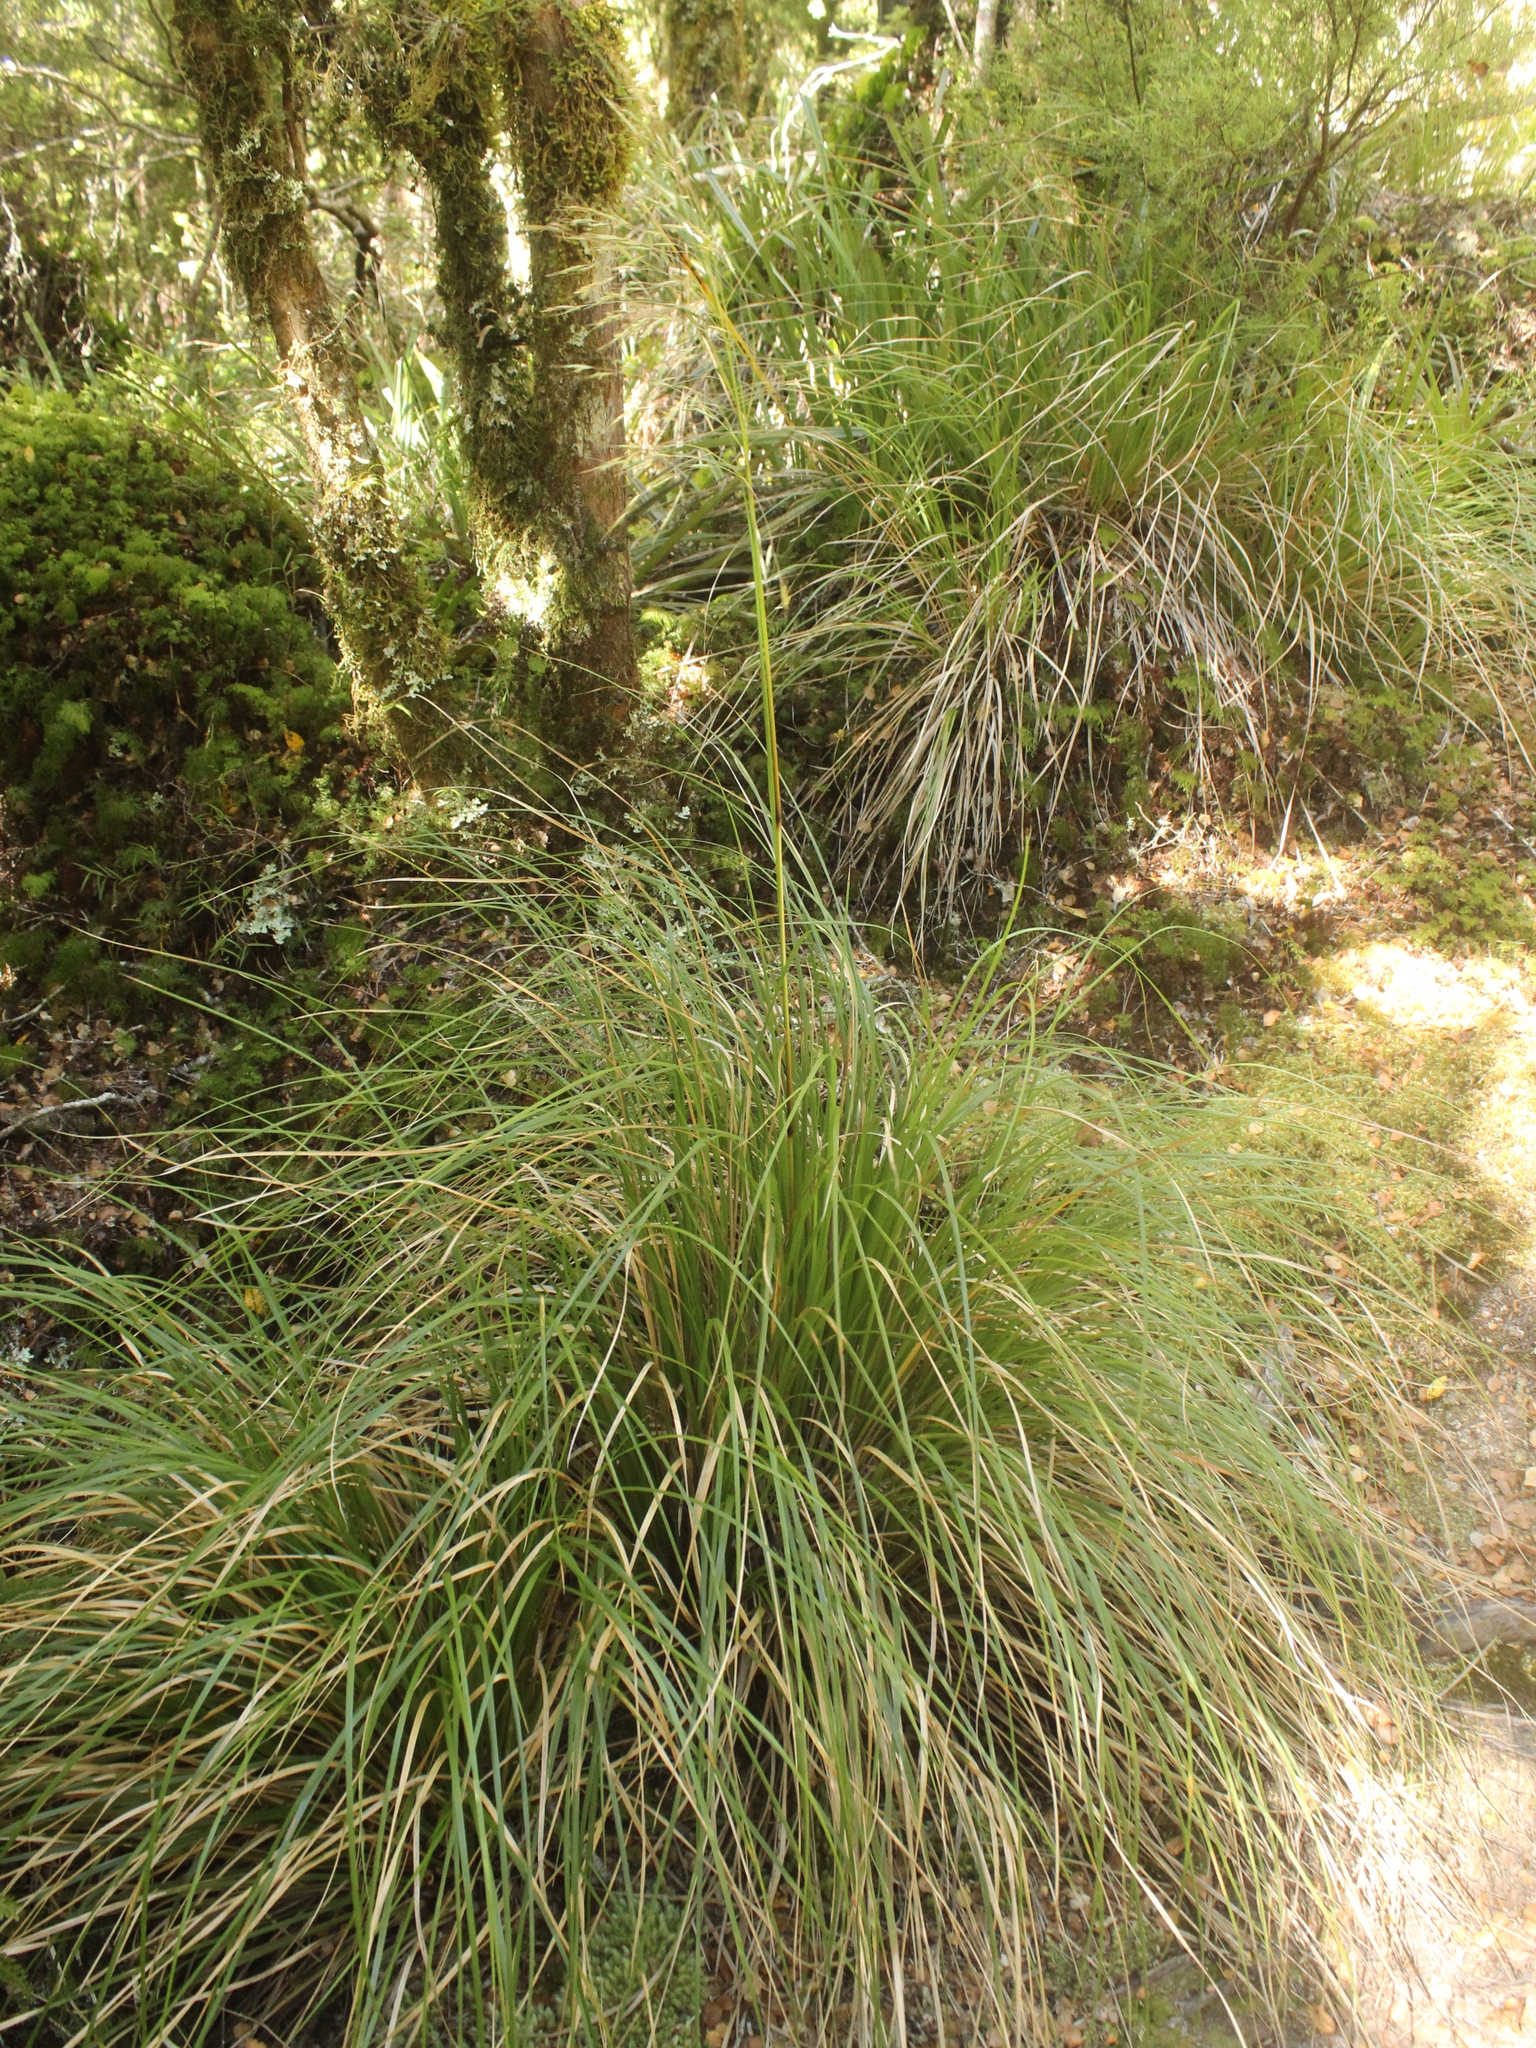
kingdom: Plantae
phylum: Tracheophyta
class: Liliopsida
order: Poales
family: Poaceae
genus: Chionochloa
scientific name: Chionochloa conspicua
